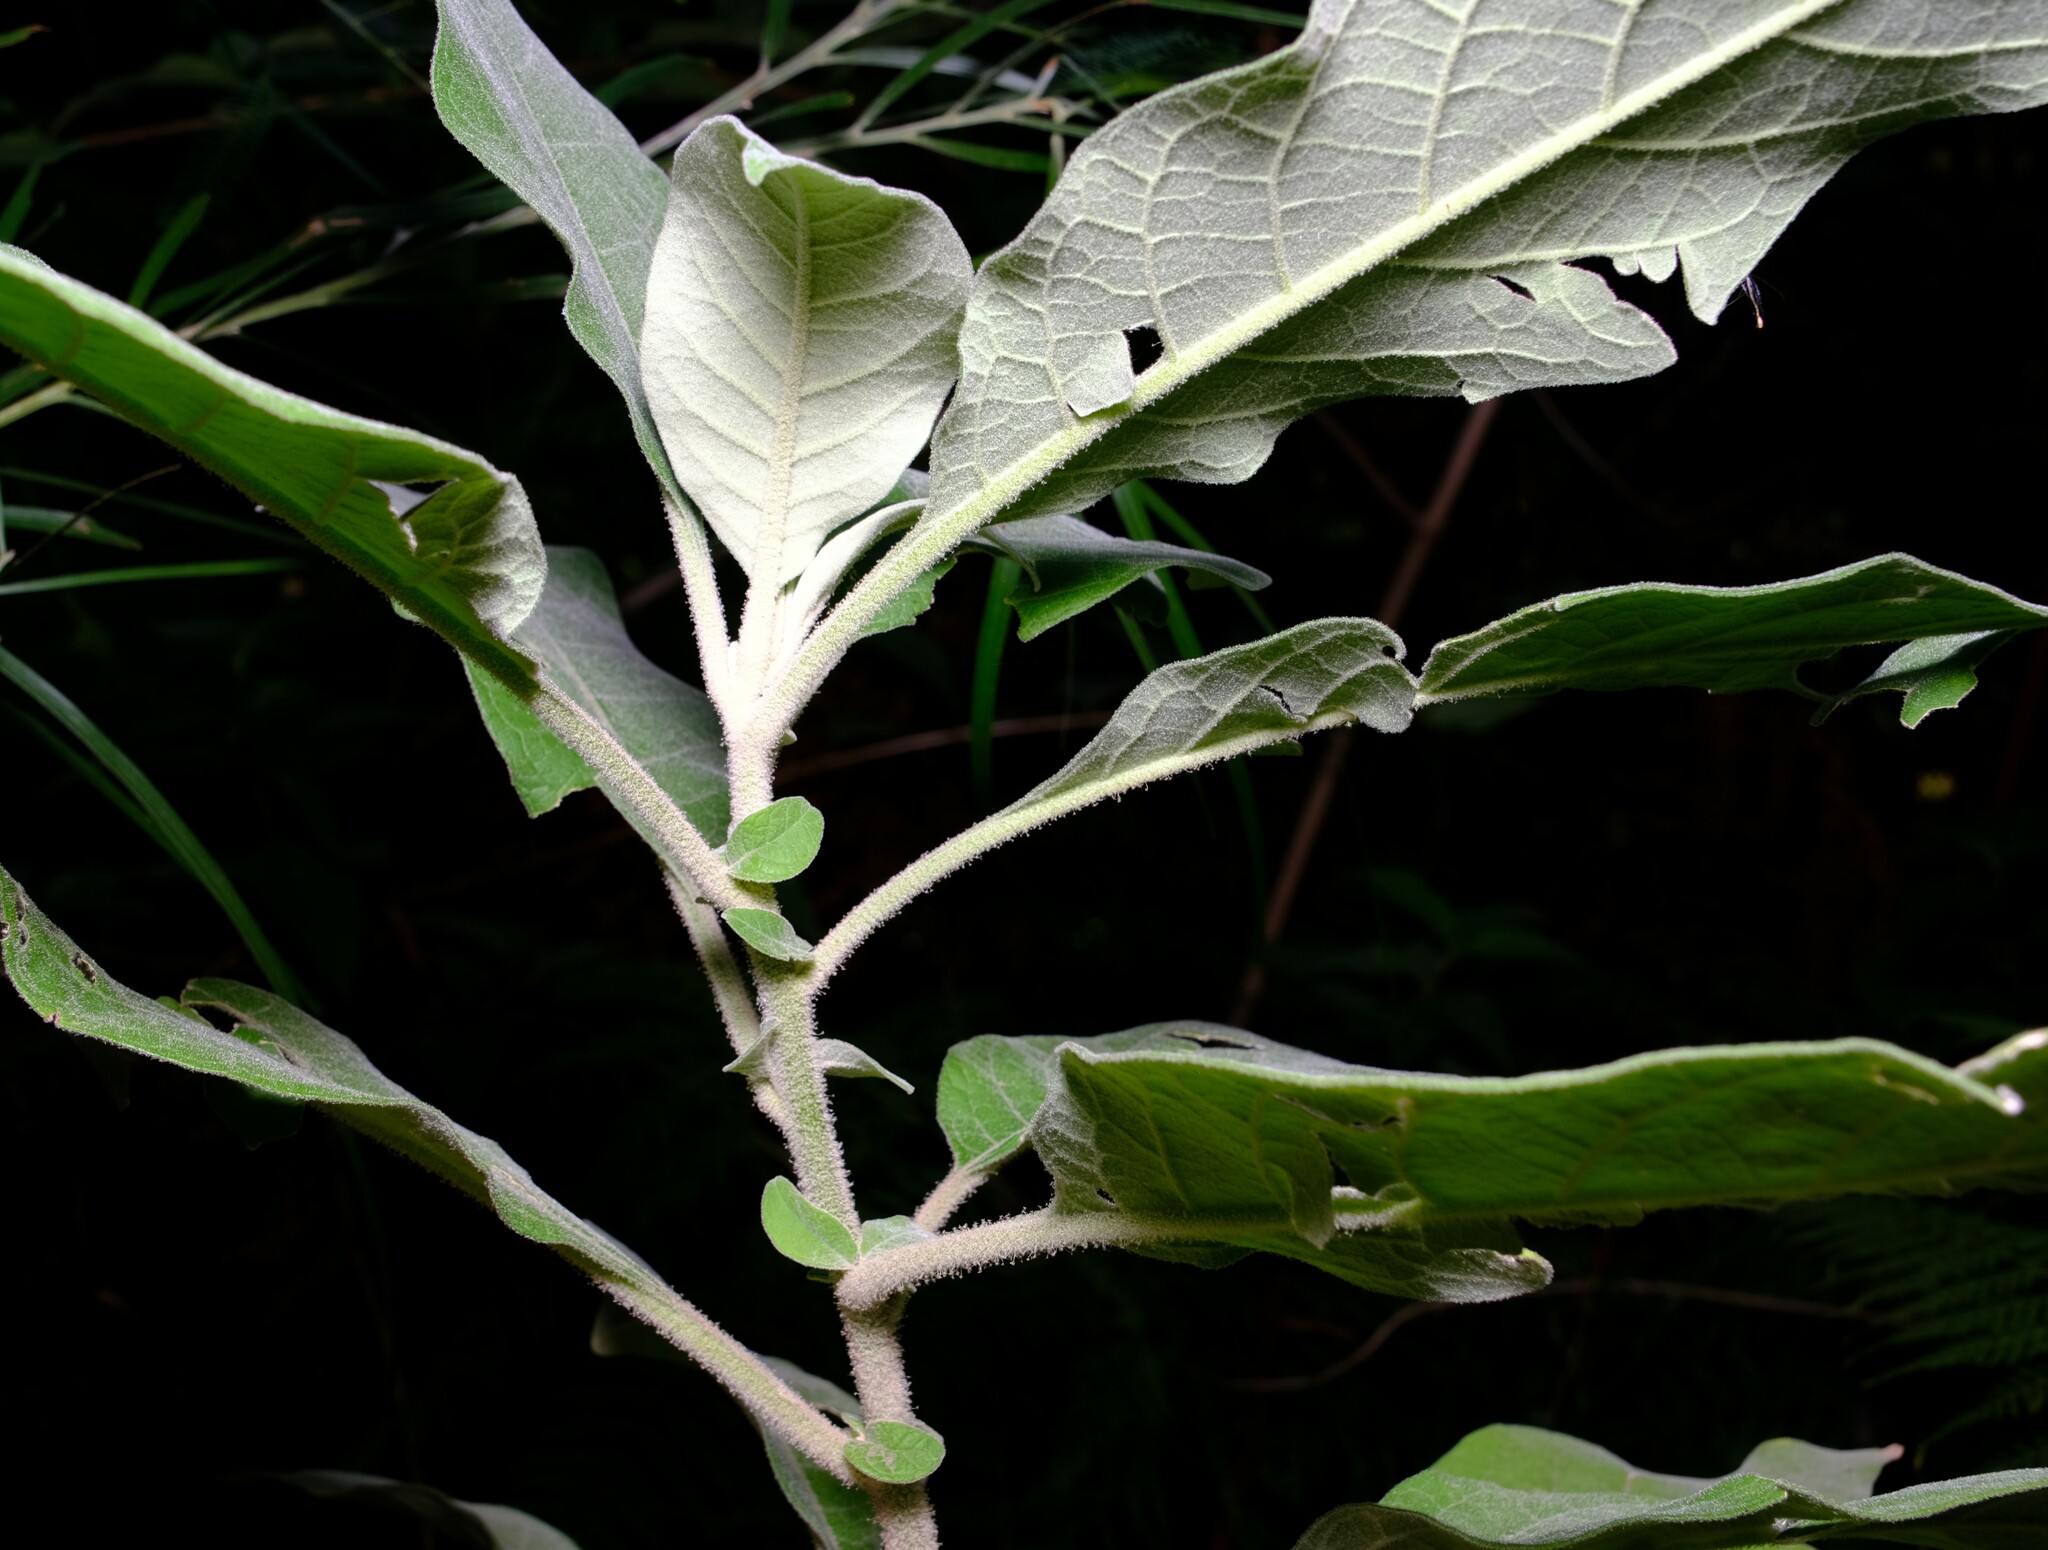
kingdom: Plantae
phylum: Tracheophyta
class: Magnoliopsida
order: Solanales
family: Solanaceae
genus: Solanum
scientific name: Solanum mauritianum
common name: Earleaf nightshade
